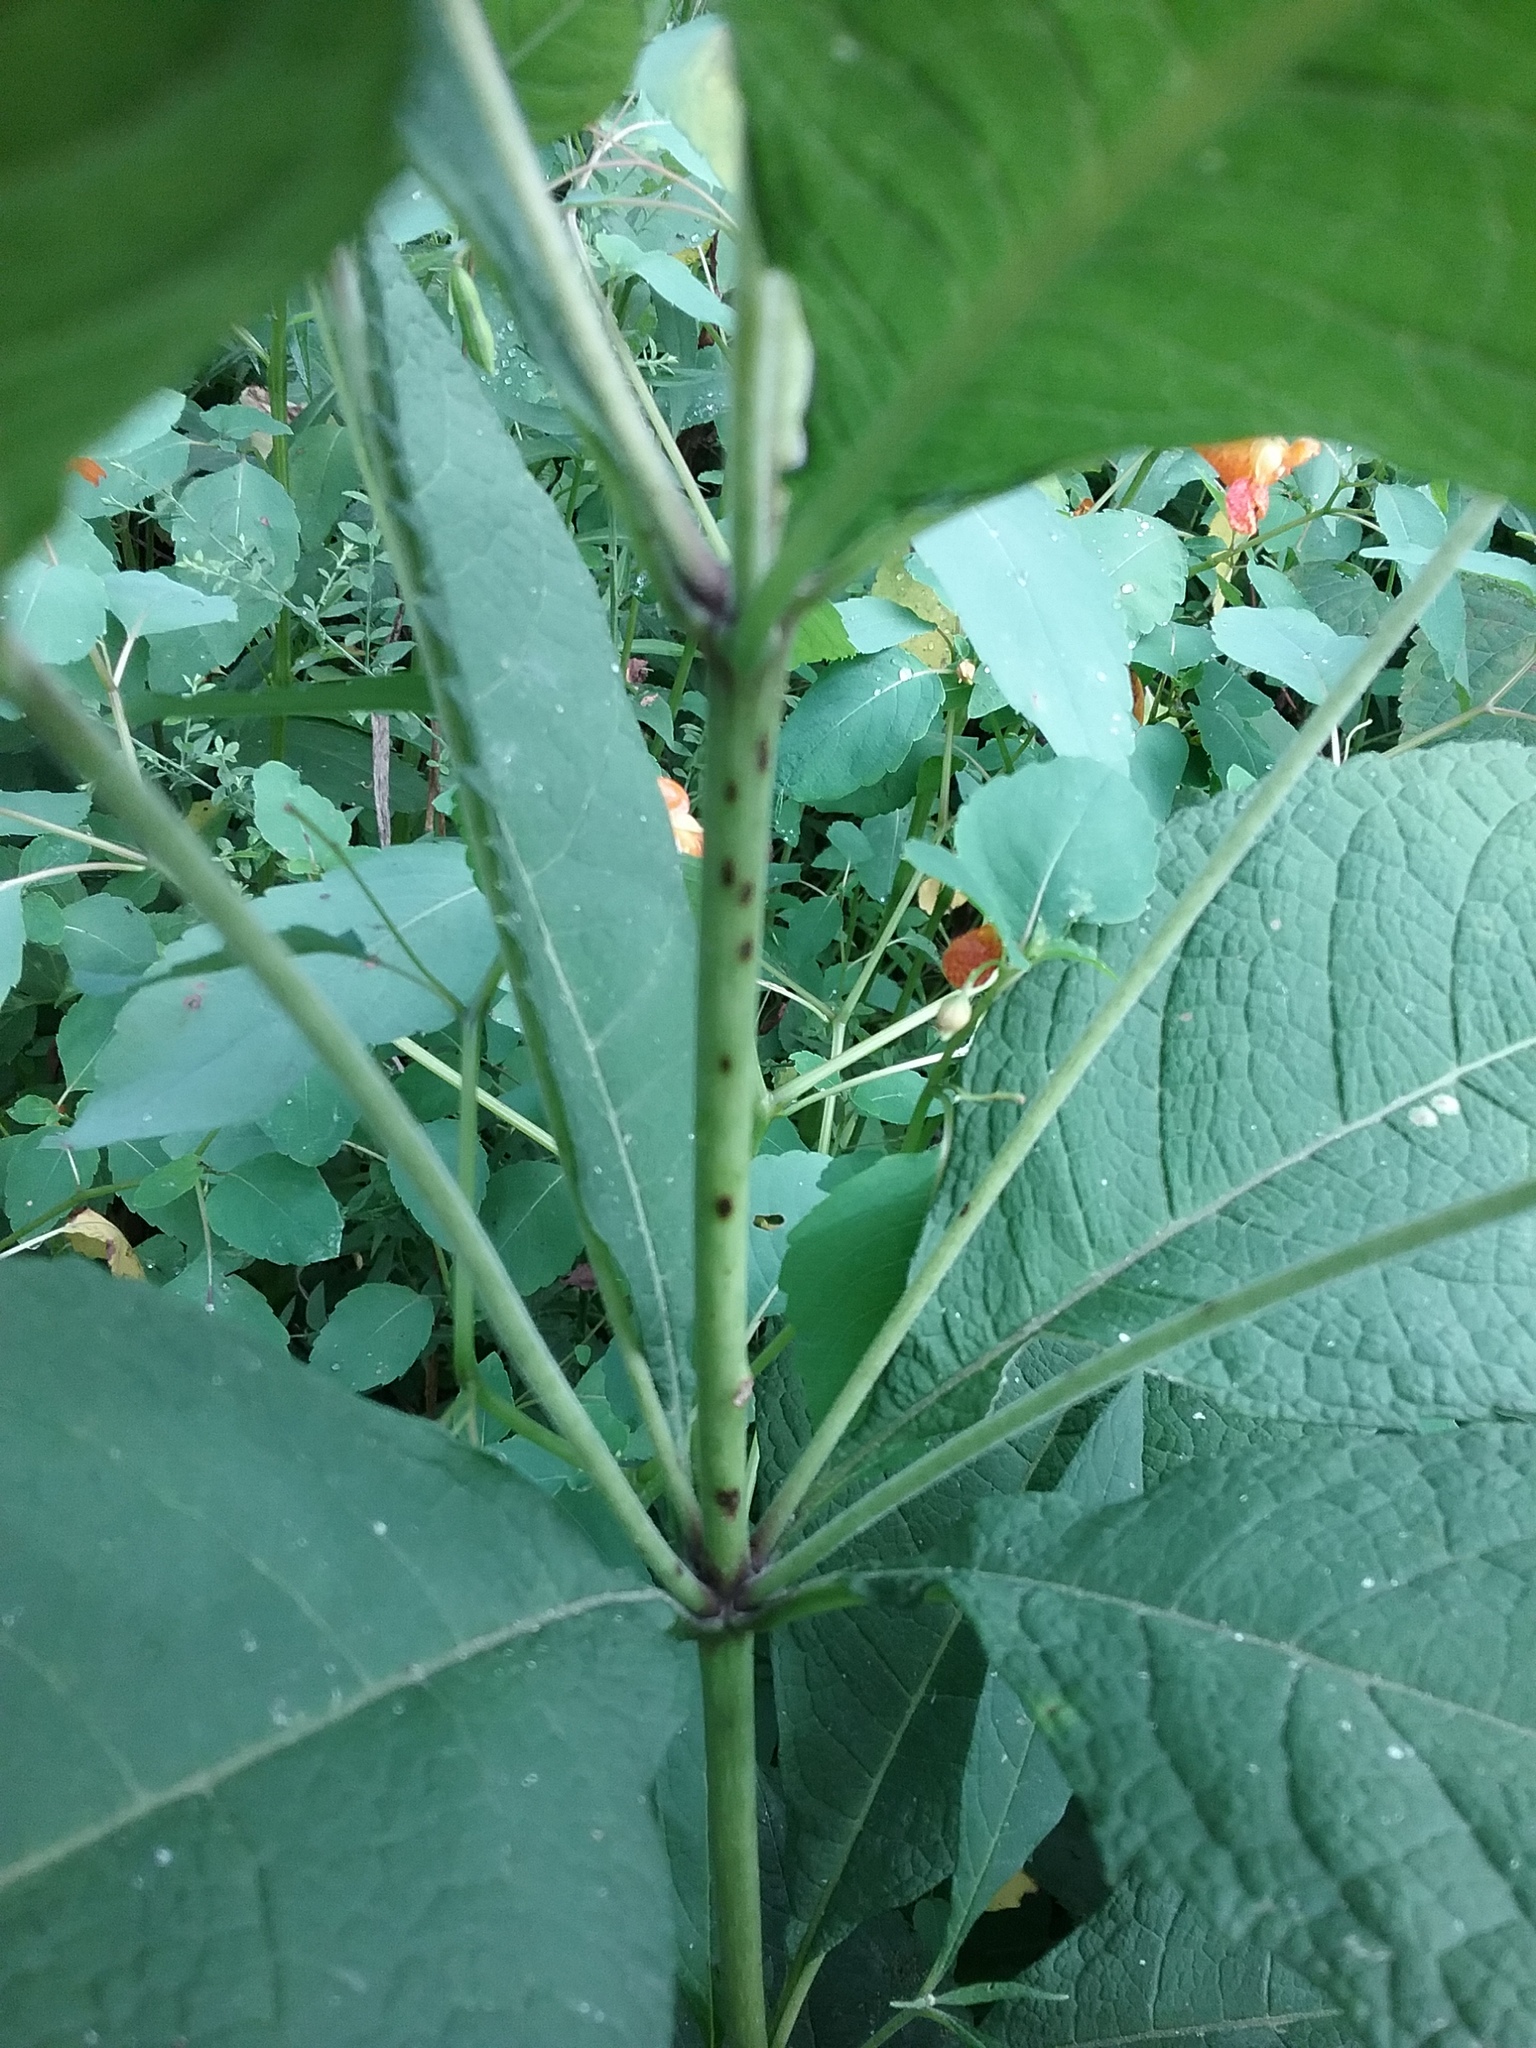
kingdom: Plantae
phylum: Tracheophyta
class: Magnoliopsida
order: Asterales
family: Asteraceae
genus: Eutrochium
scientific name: Eutrochium purpureum
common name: Gravelroot
